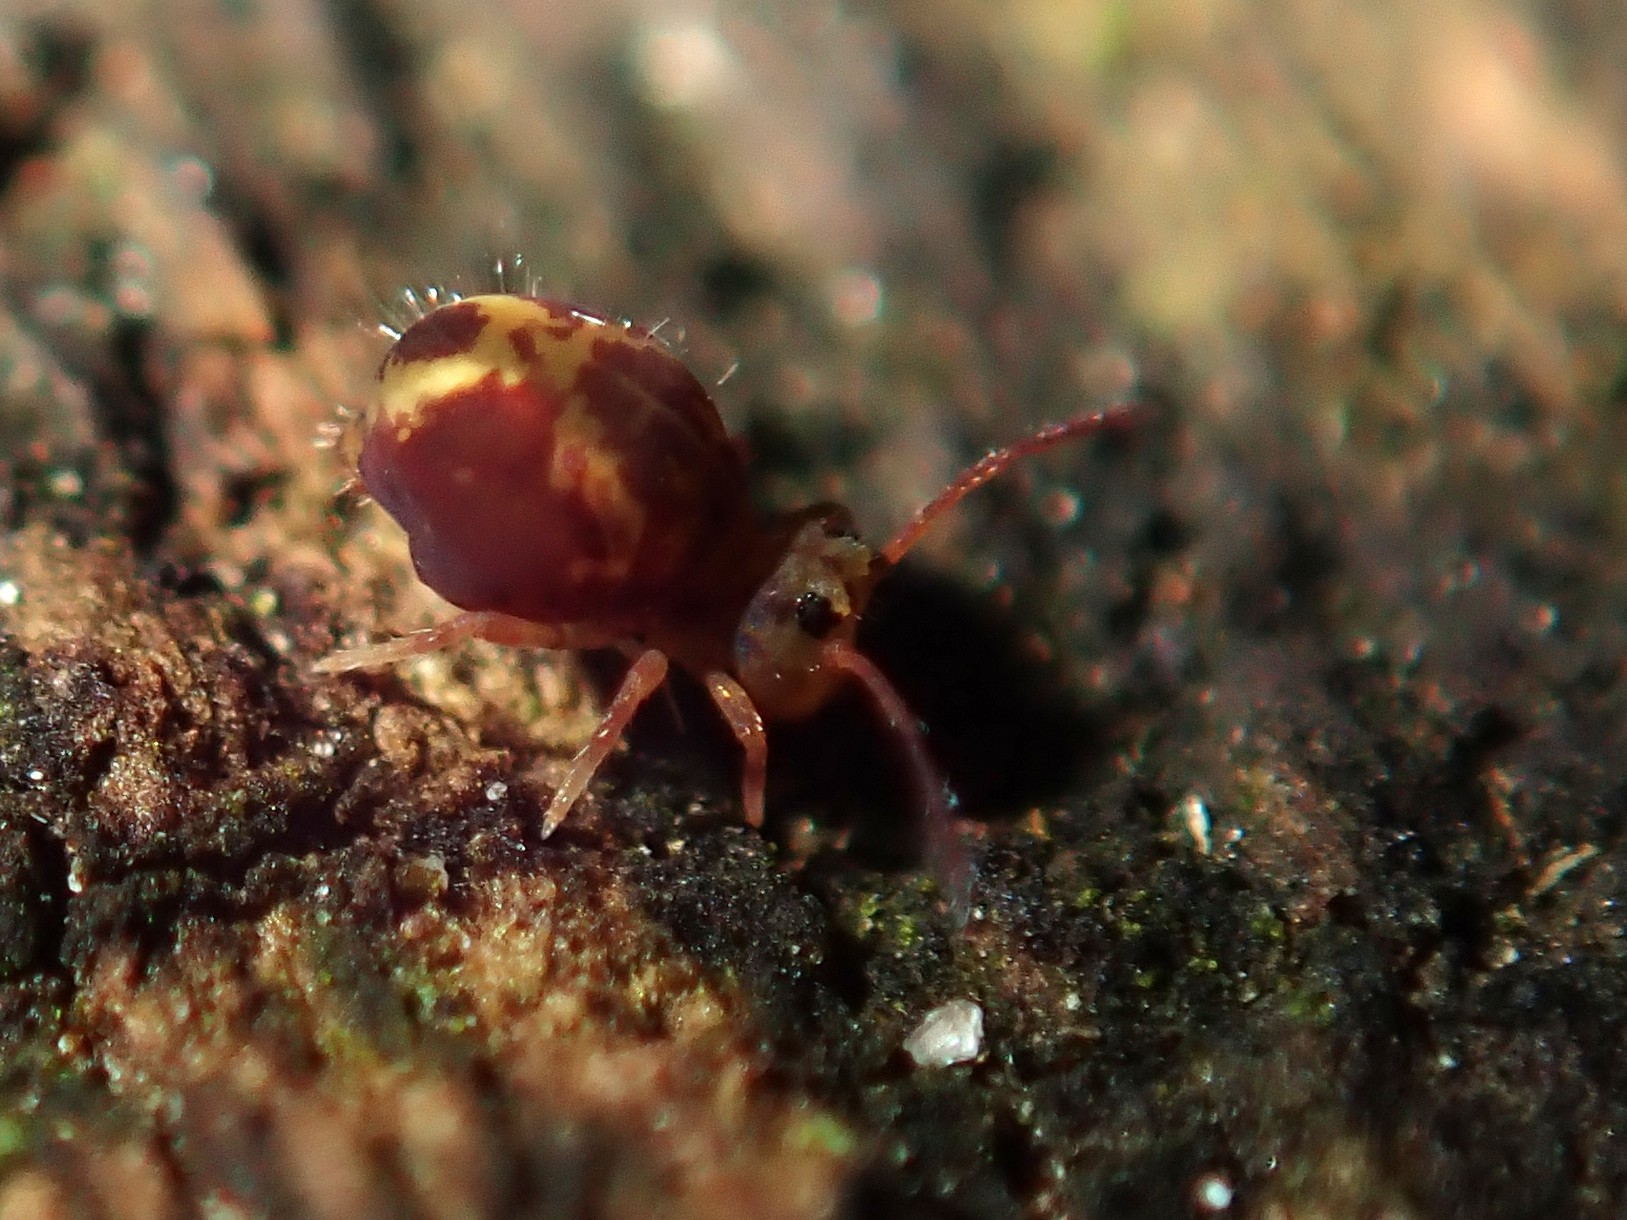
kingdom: Animalia
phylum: Arthropoda
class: Collembola
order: Symphypleona
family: Dicyrtomidae
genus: Dicyrtomina
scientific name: Dicyrtomina ornata
